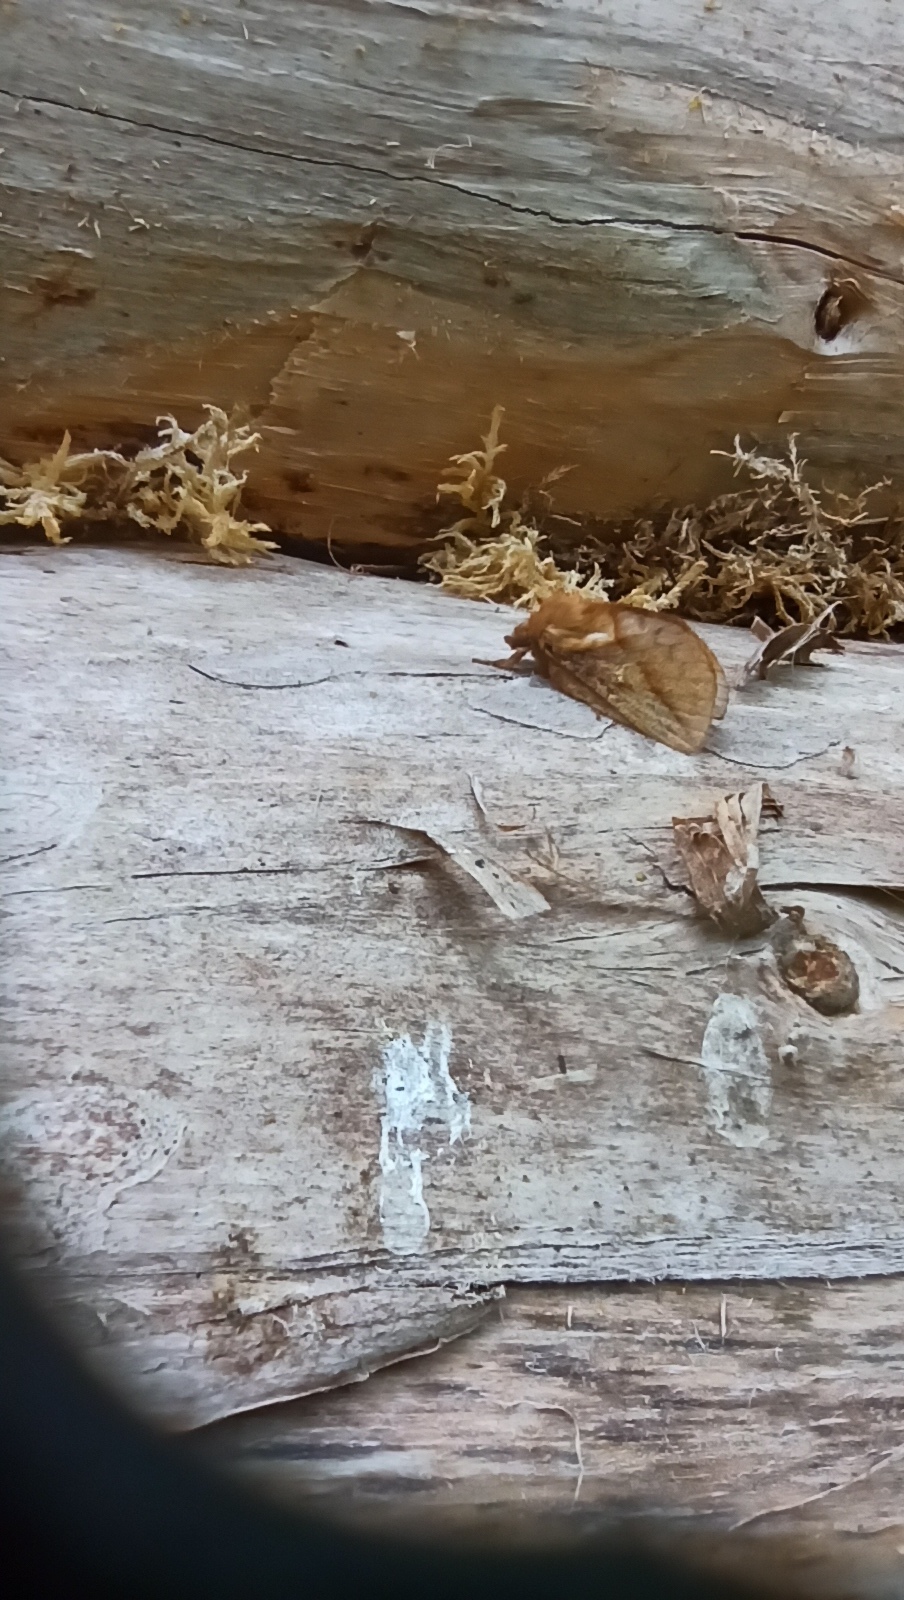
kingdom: Animalia
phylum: Arthropoda
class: Insecta
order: Lepidoptera
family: Lasiocampidae
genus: Euthrix
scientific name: Euthrix potatoria
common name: Drinker
